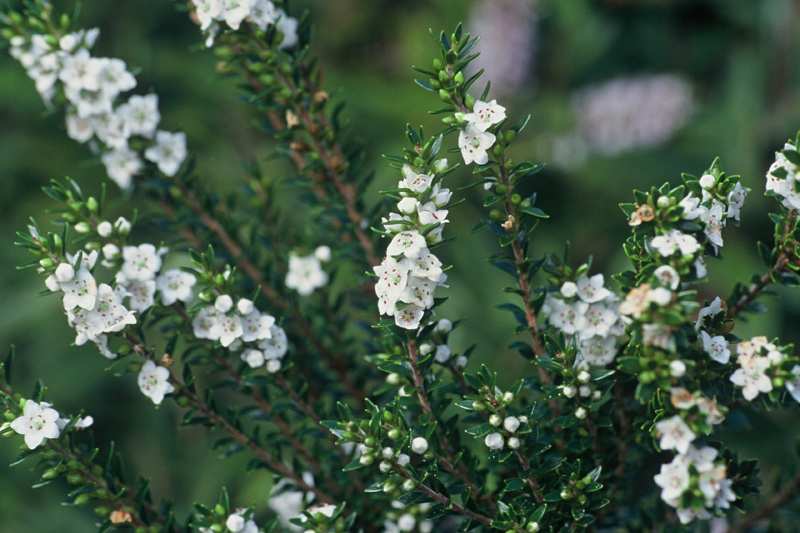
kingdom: Plantae
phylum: Tracheophyta
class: Magnoliopsida
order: Ericales
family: Ericaceae
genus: Epacris
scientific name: Epacris sinclairii
